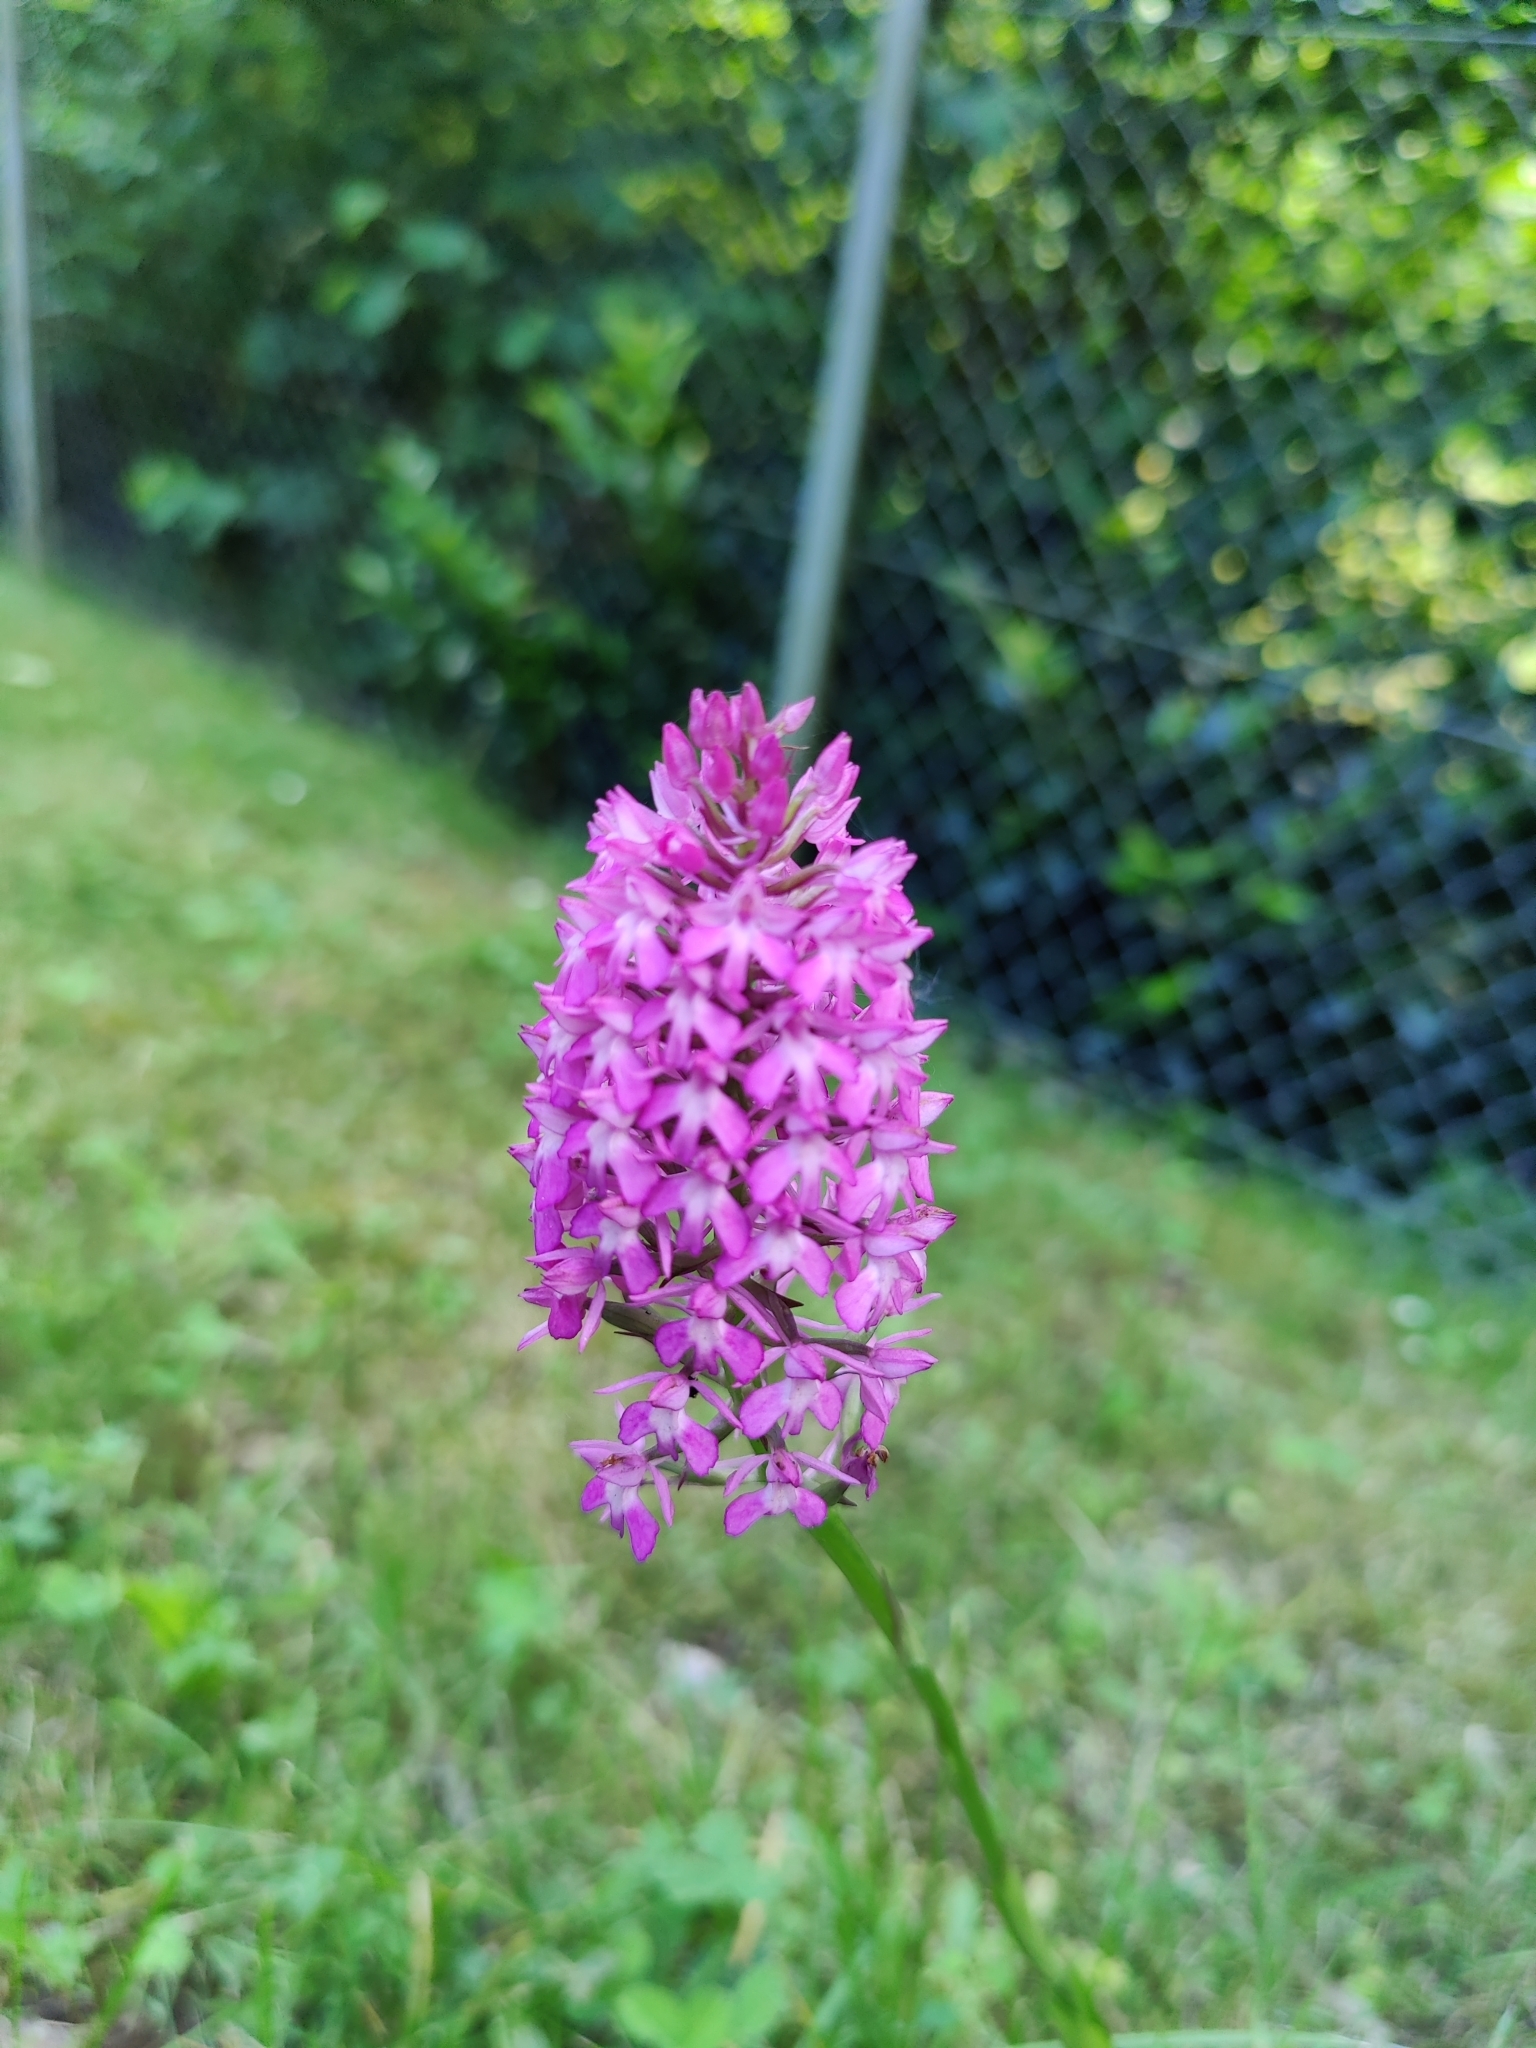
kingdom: Plantae
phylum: Tracheophyta
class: Liliopsida
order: Asparagales
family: Orchidaceae
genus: Anacamptis
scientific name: Anacamptis pyramidalis
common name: Pyramidal orchid
